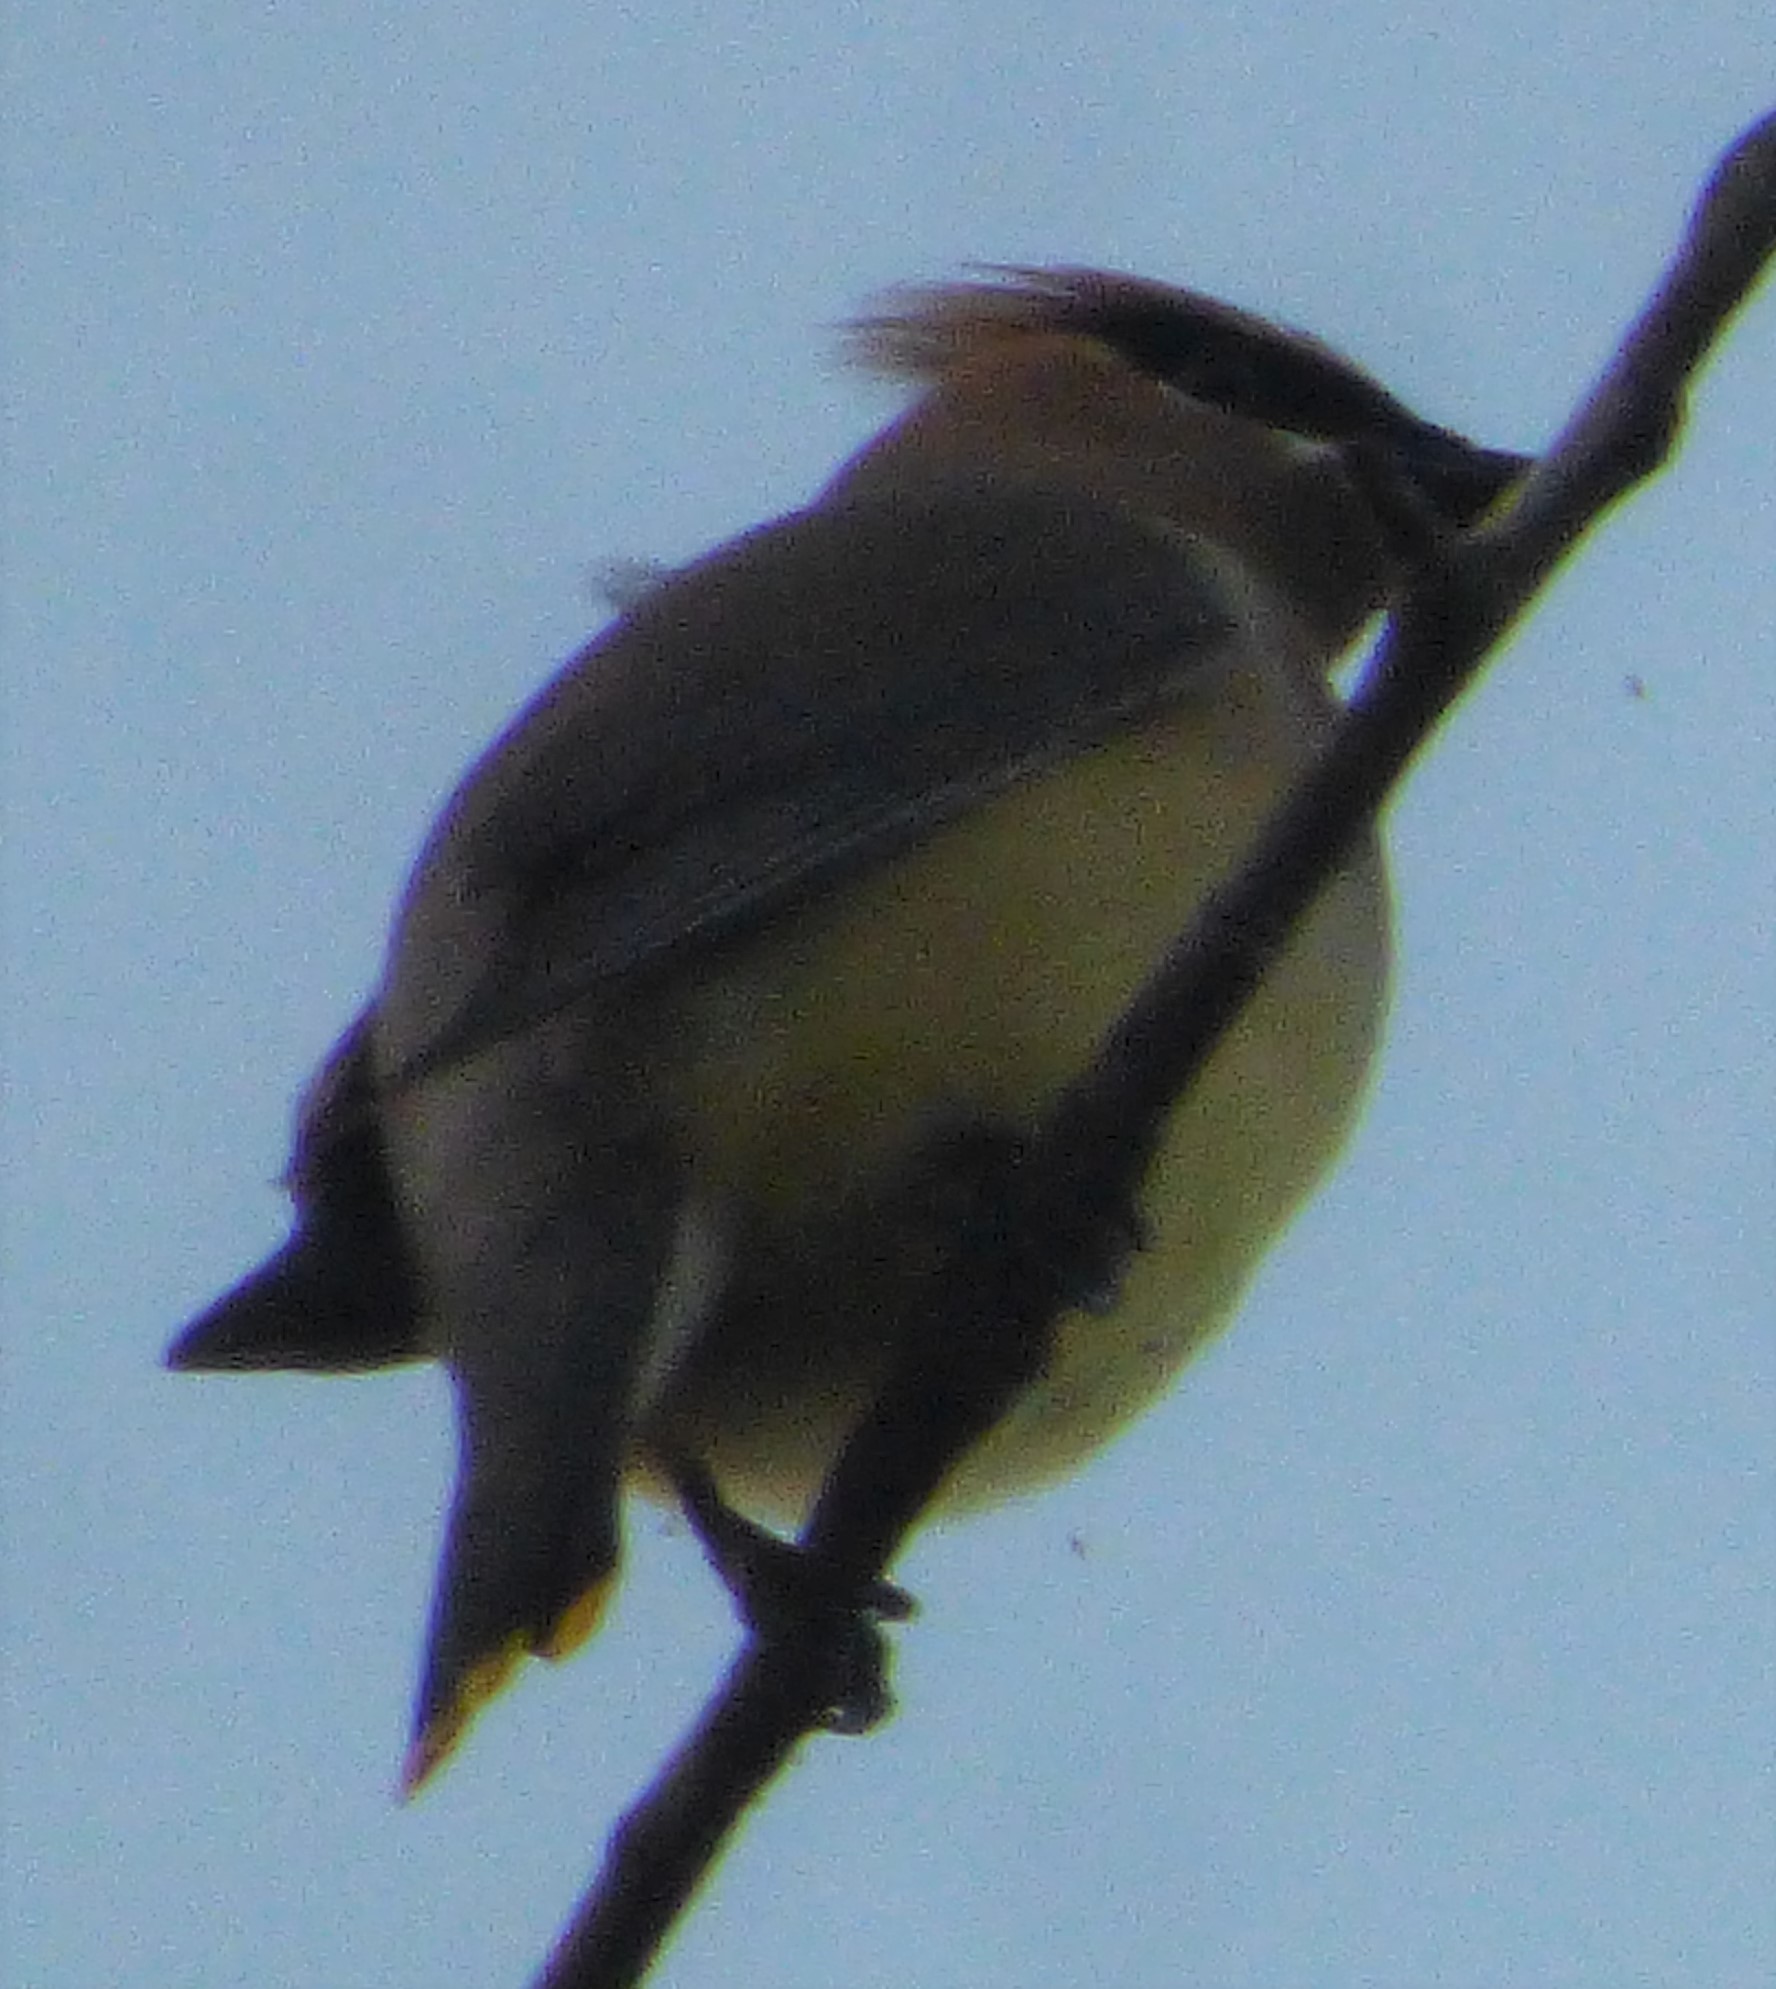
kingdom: Animalia
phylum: Chordata
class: Aves
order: Passeriformes
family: Bombycillidae
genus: Bombycilla
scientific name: Bombycilla cedrorum
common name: Cedar waxwing
